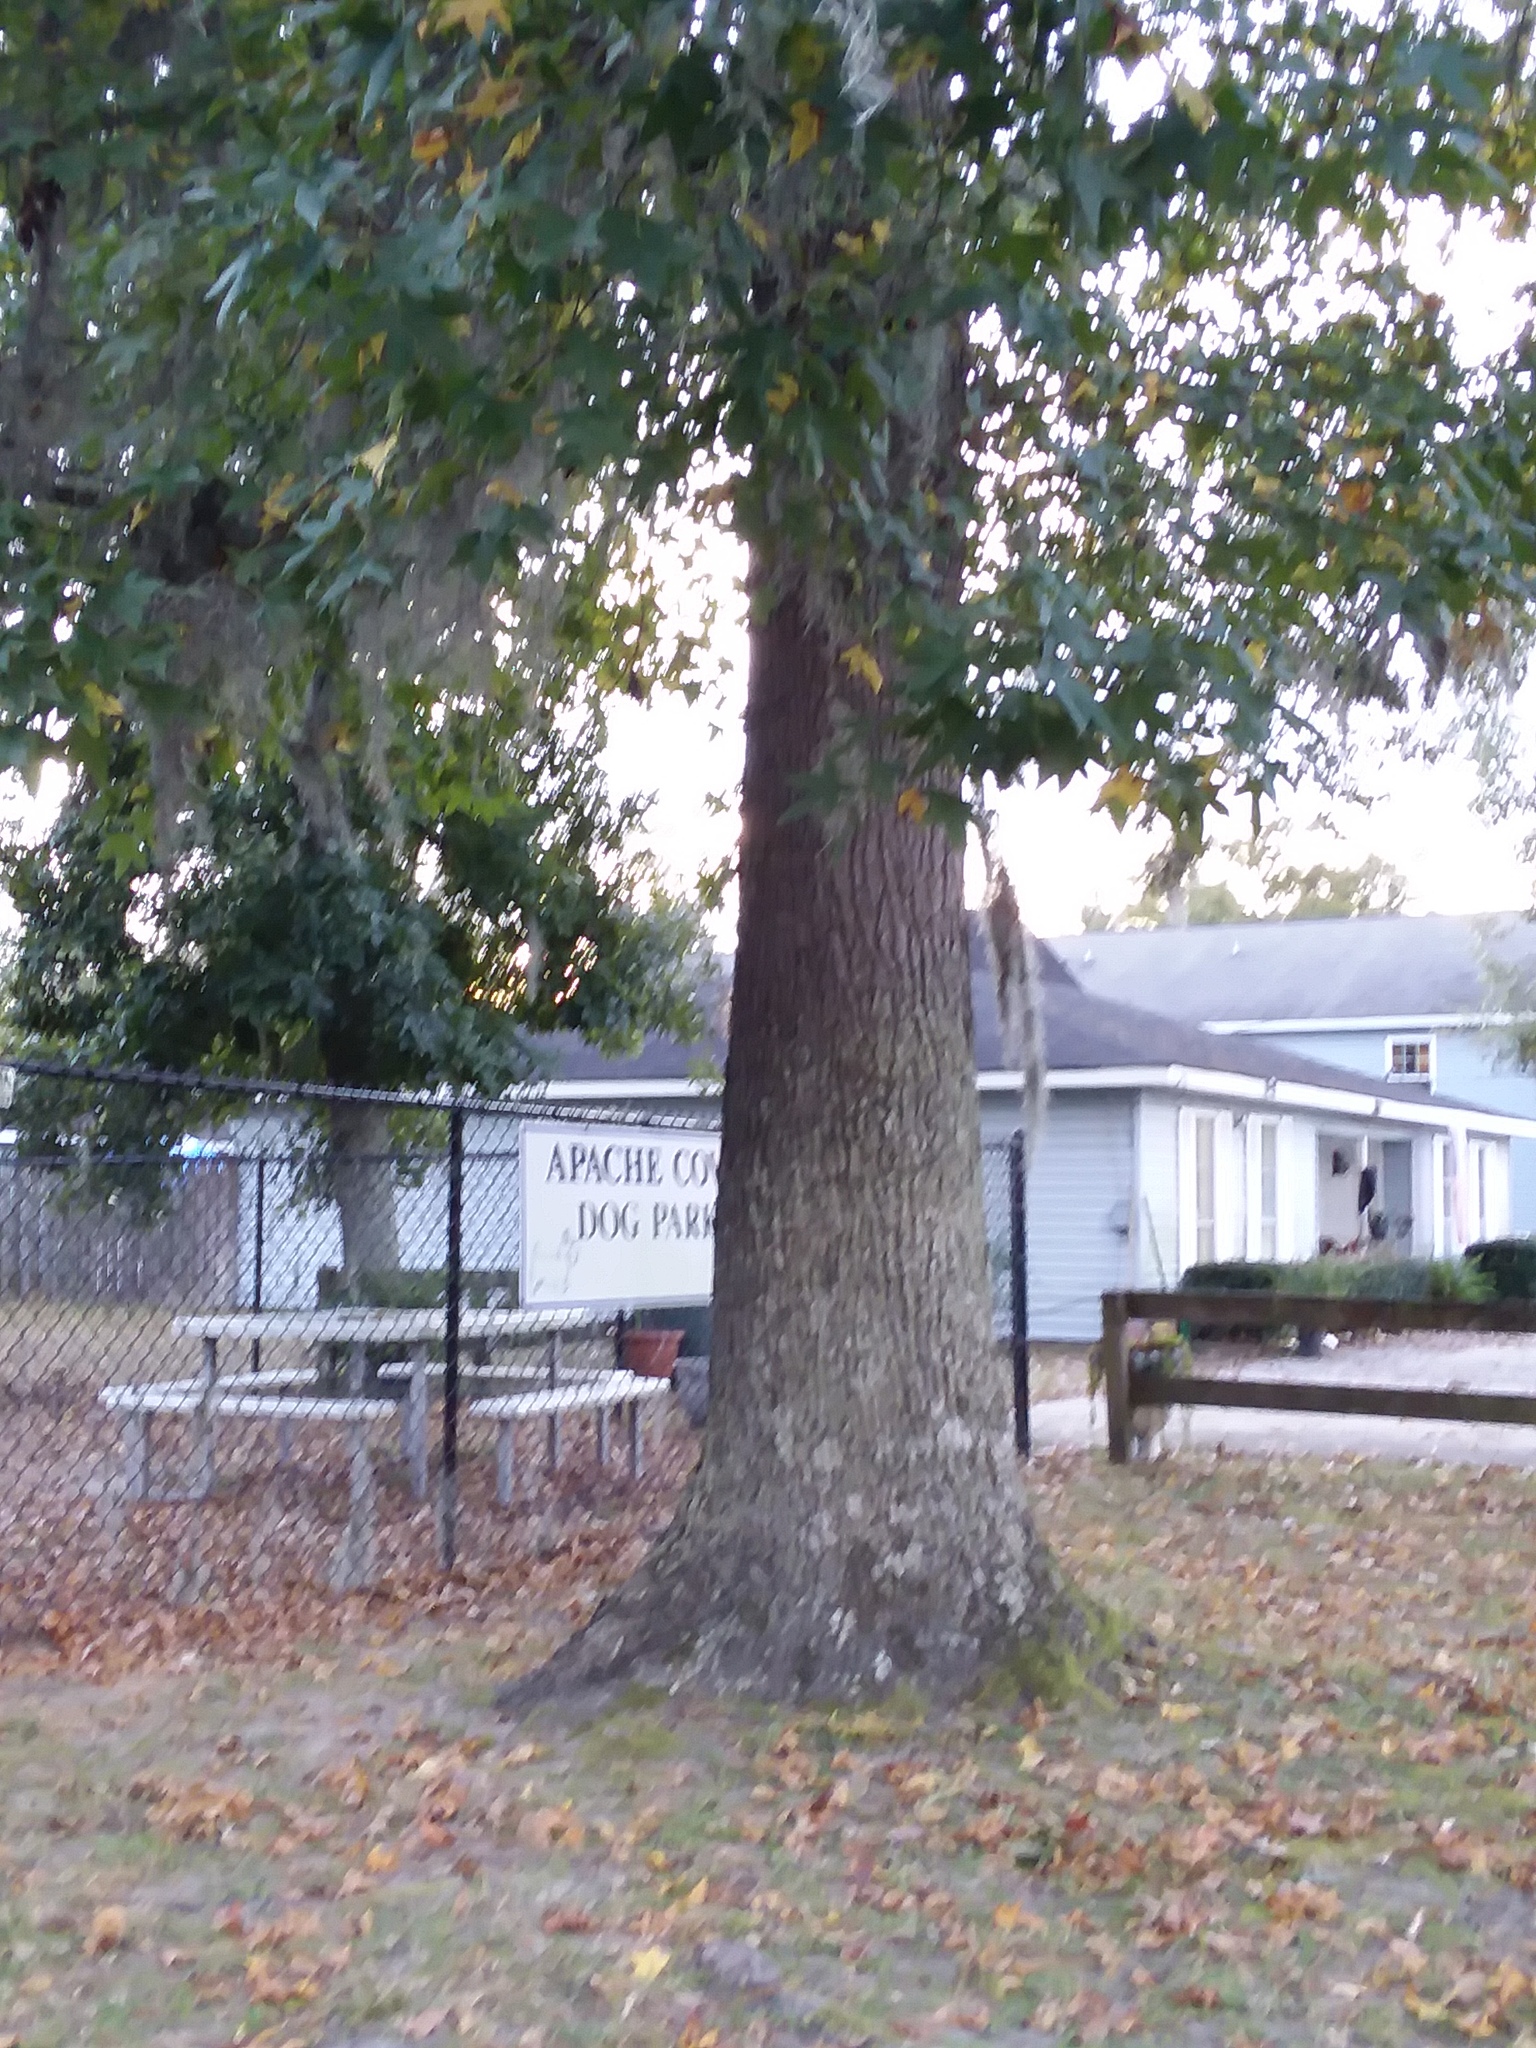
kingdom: Plantae
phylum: Tracheophyta
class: Magnoliopsida
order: Saxifragales
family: Altingiaceae
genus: Liquidambar
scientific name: Liquidambar styraciflua
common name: Sweet gum
